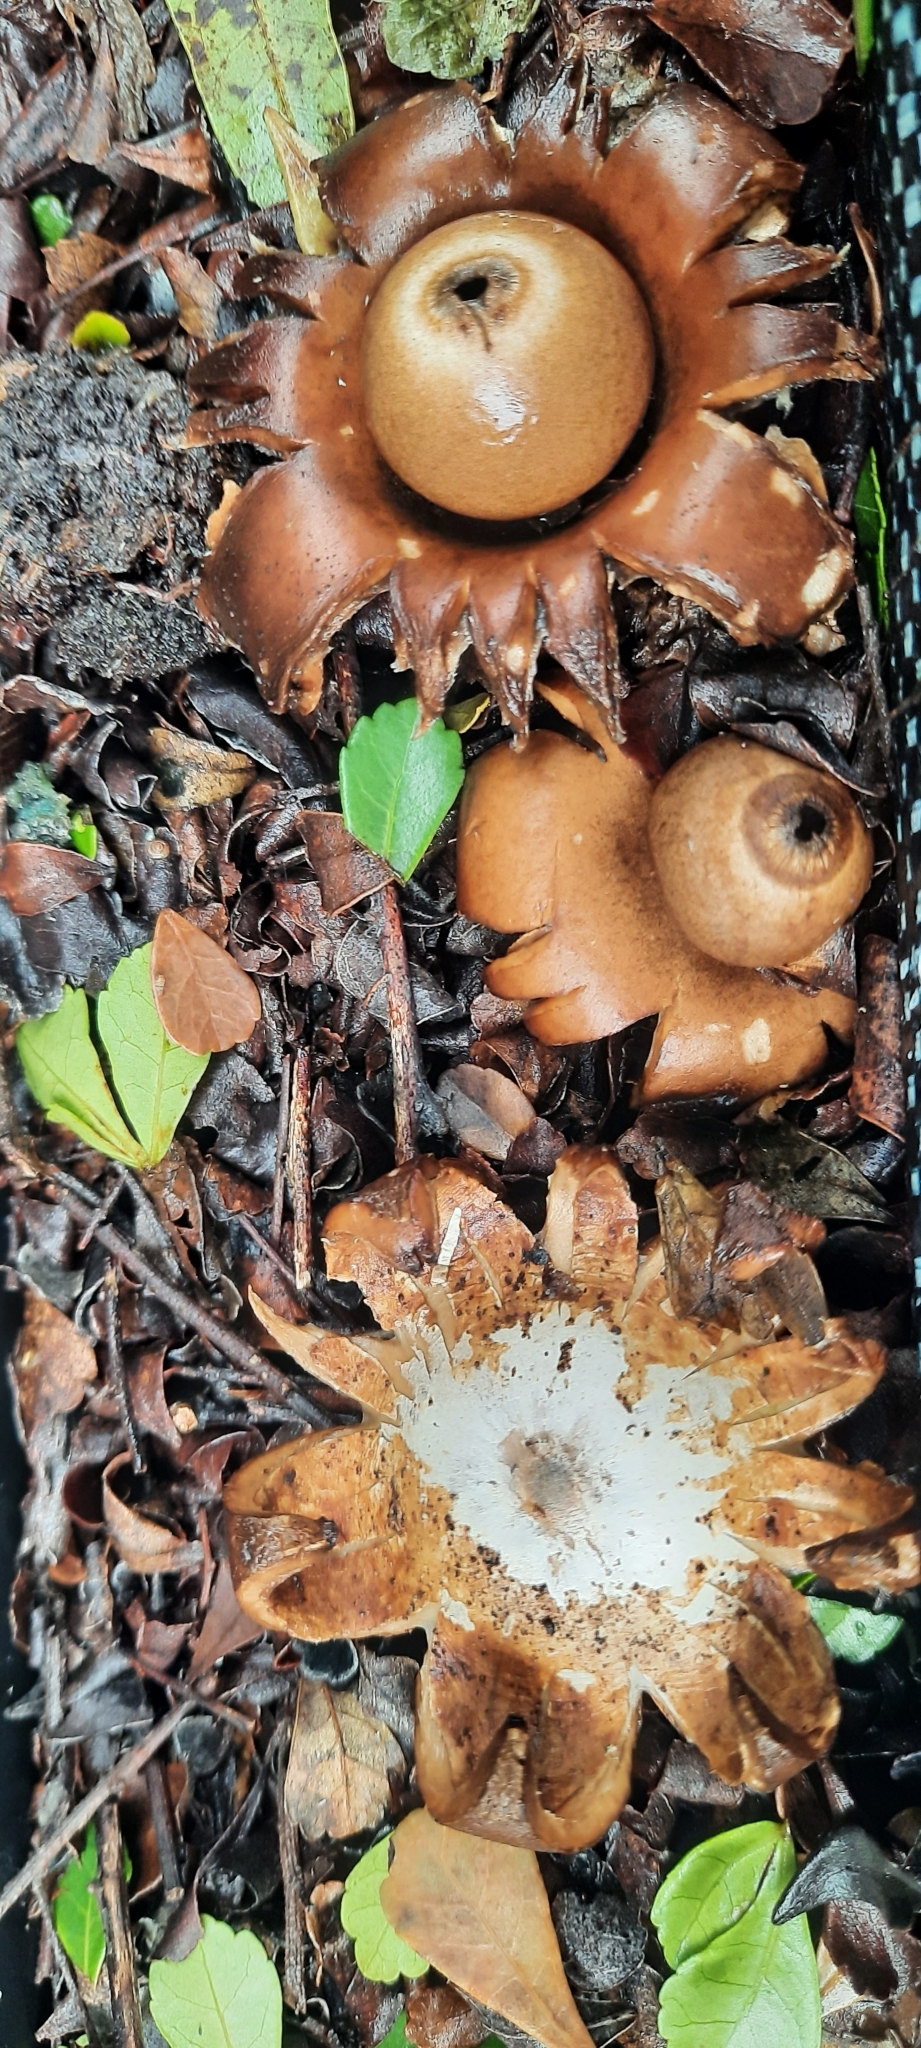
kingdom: Fungi
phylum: Basidiomycota
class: Agaricomycetes
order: Geastrales
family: Geastraceae
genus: Geastrum
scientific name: Geastrum triplex
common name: Collared earthstar
